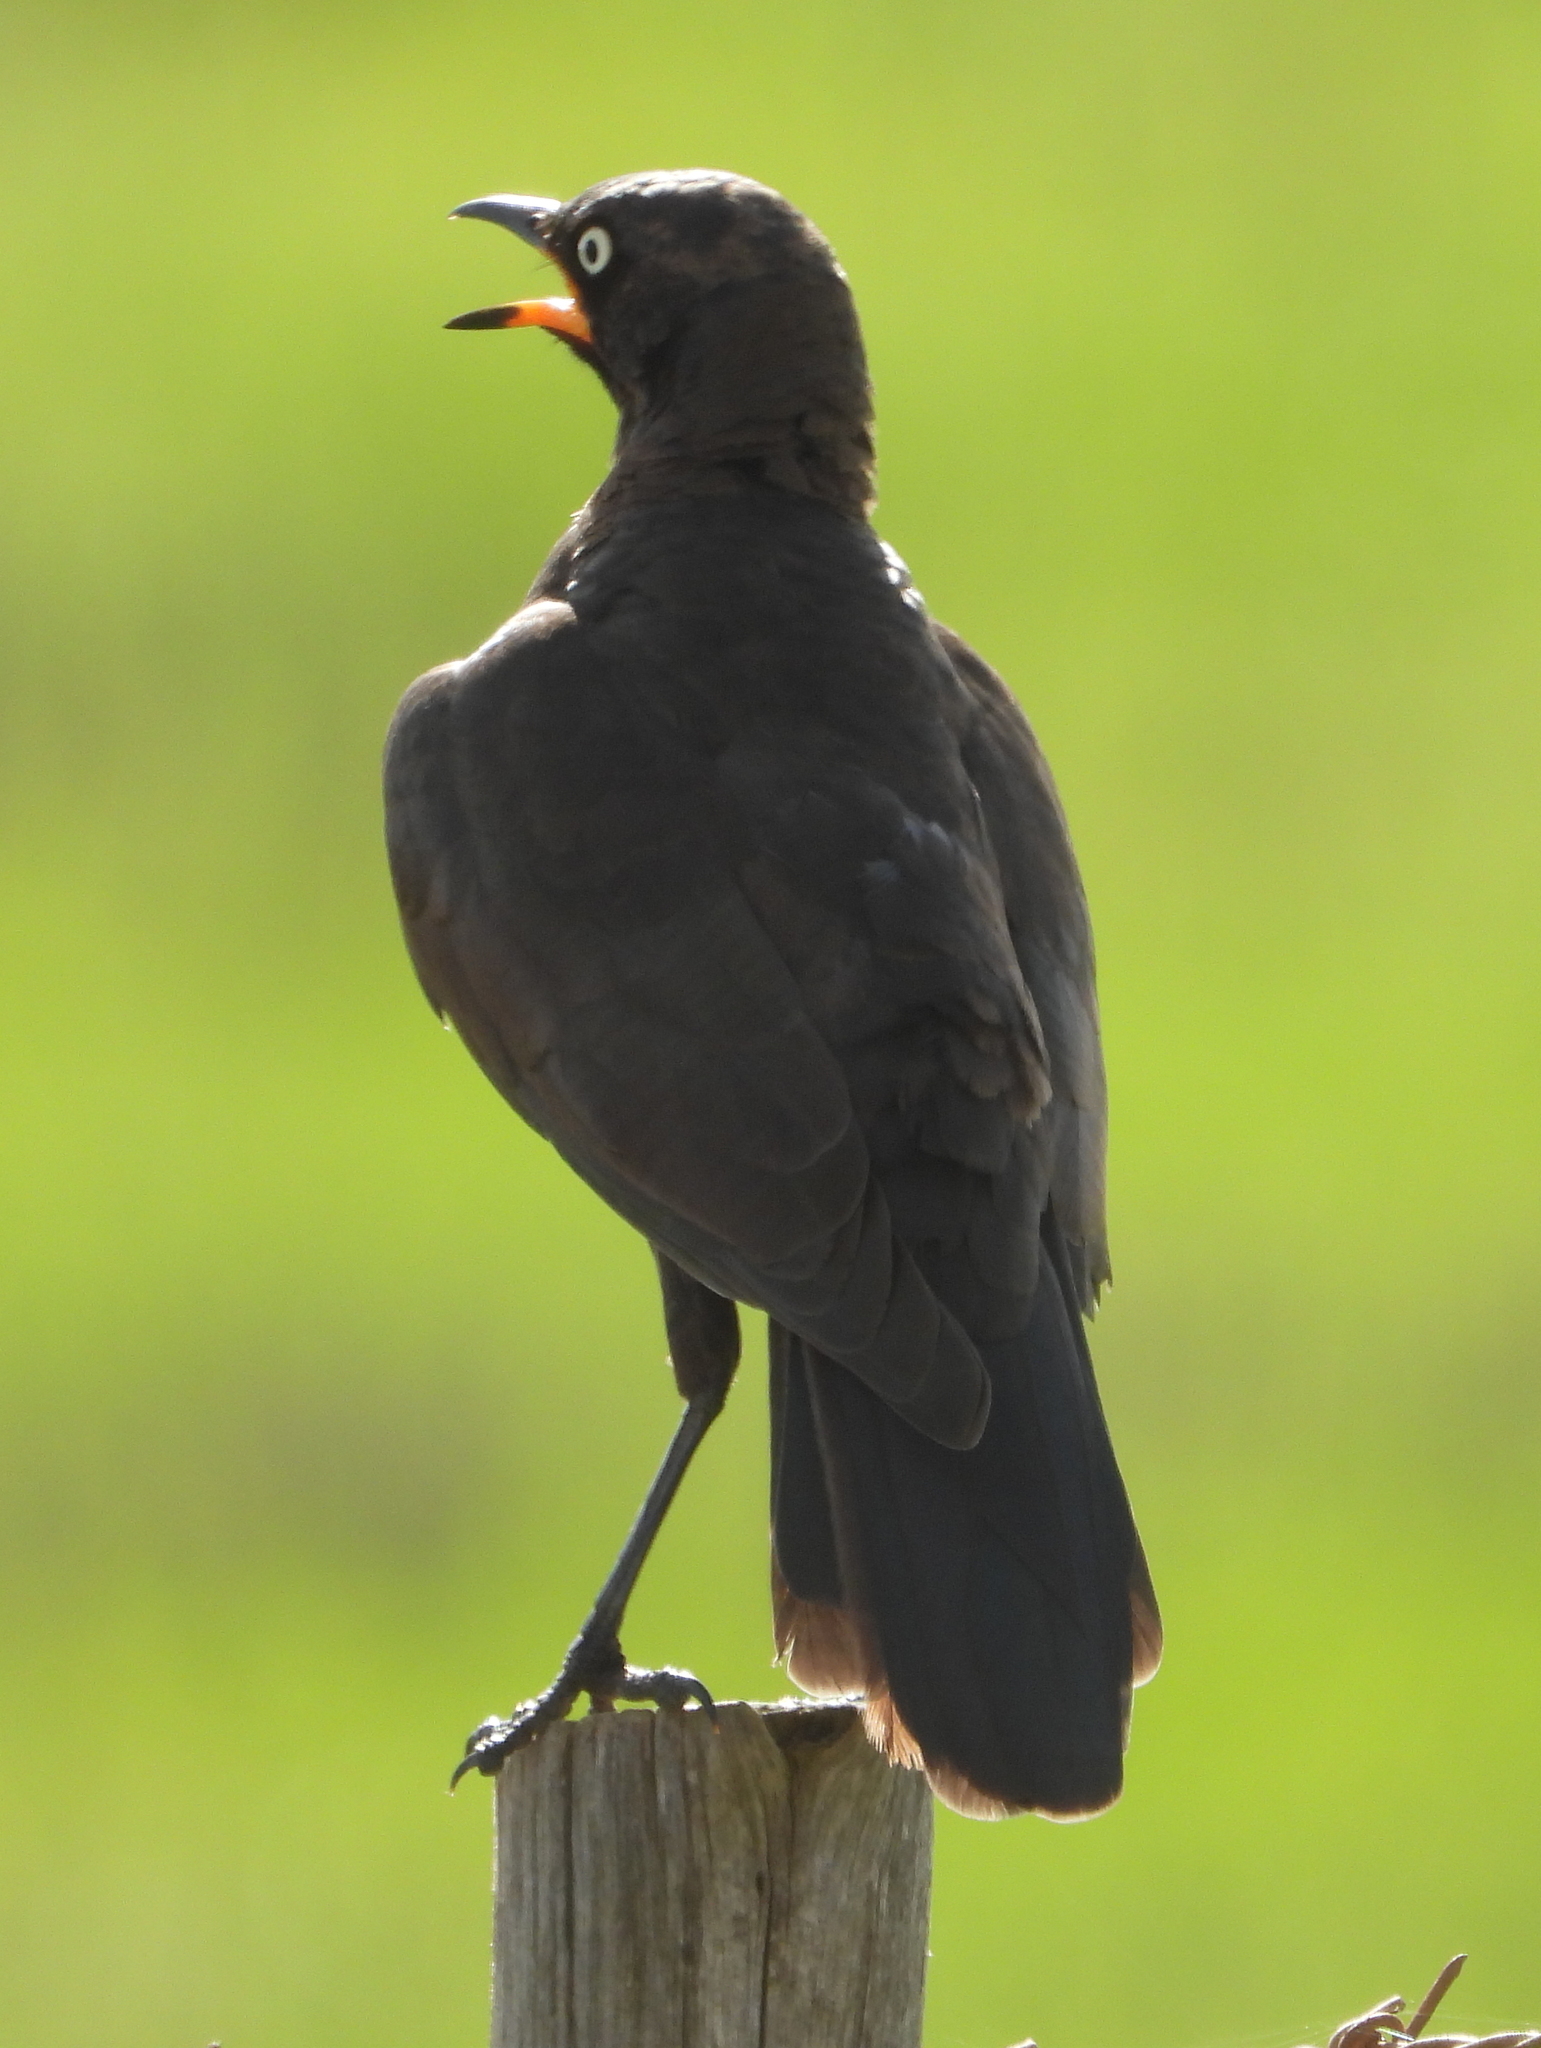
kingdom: Animalia
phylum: Chordata
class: Aves
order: Passeriformes
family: Sturnidae
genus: Lamprotornis
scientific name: Lamprotornis bicolor
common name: Pied starling
